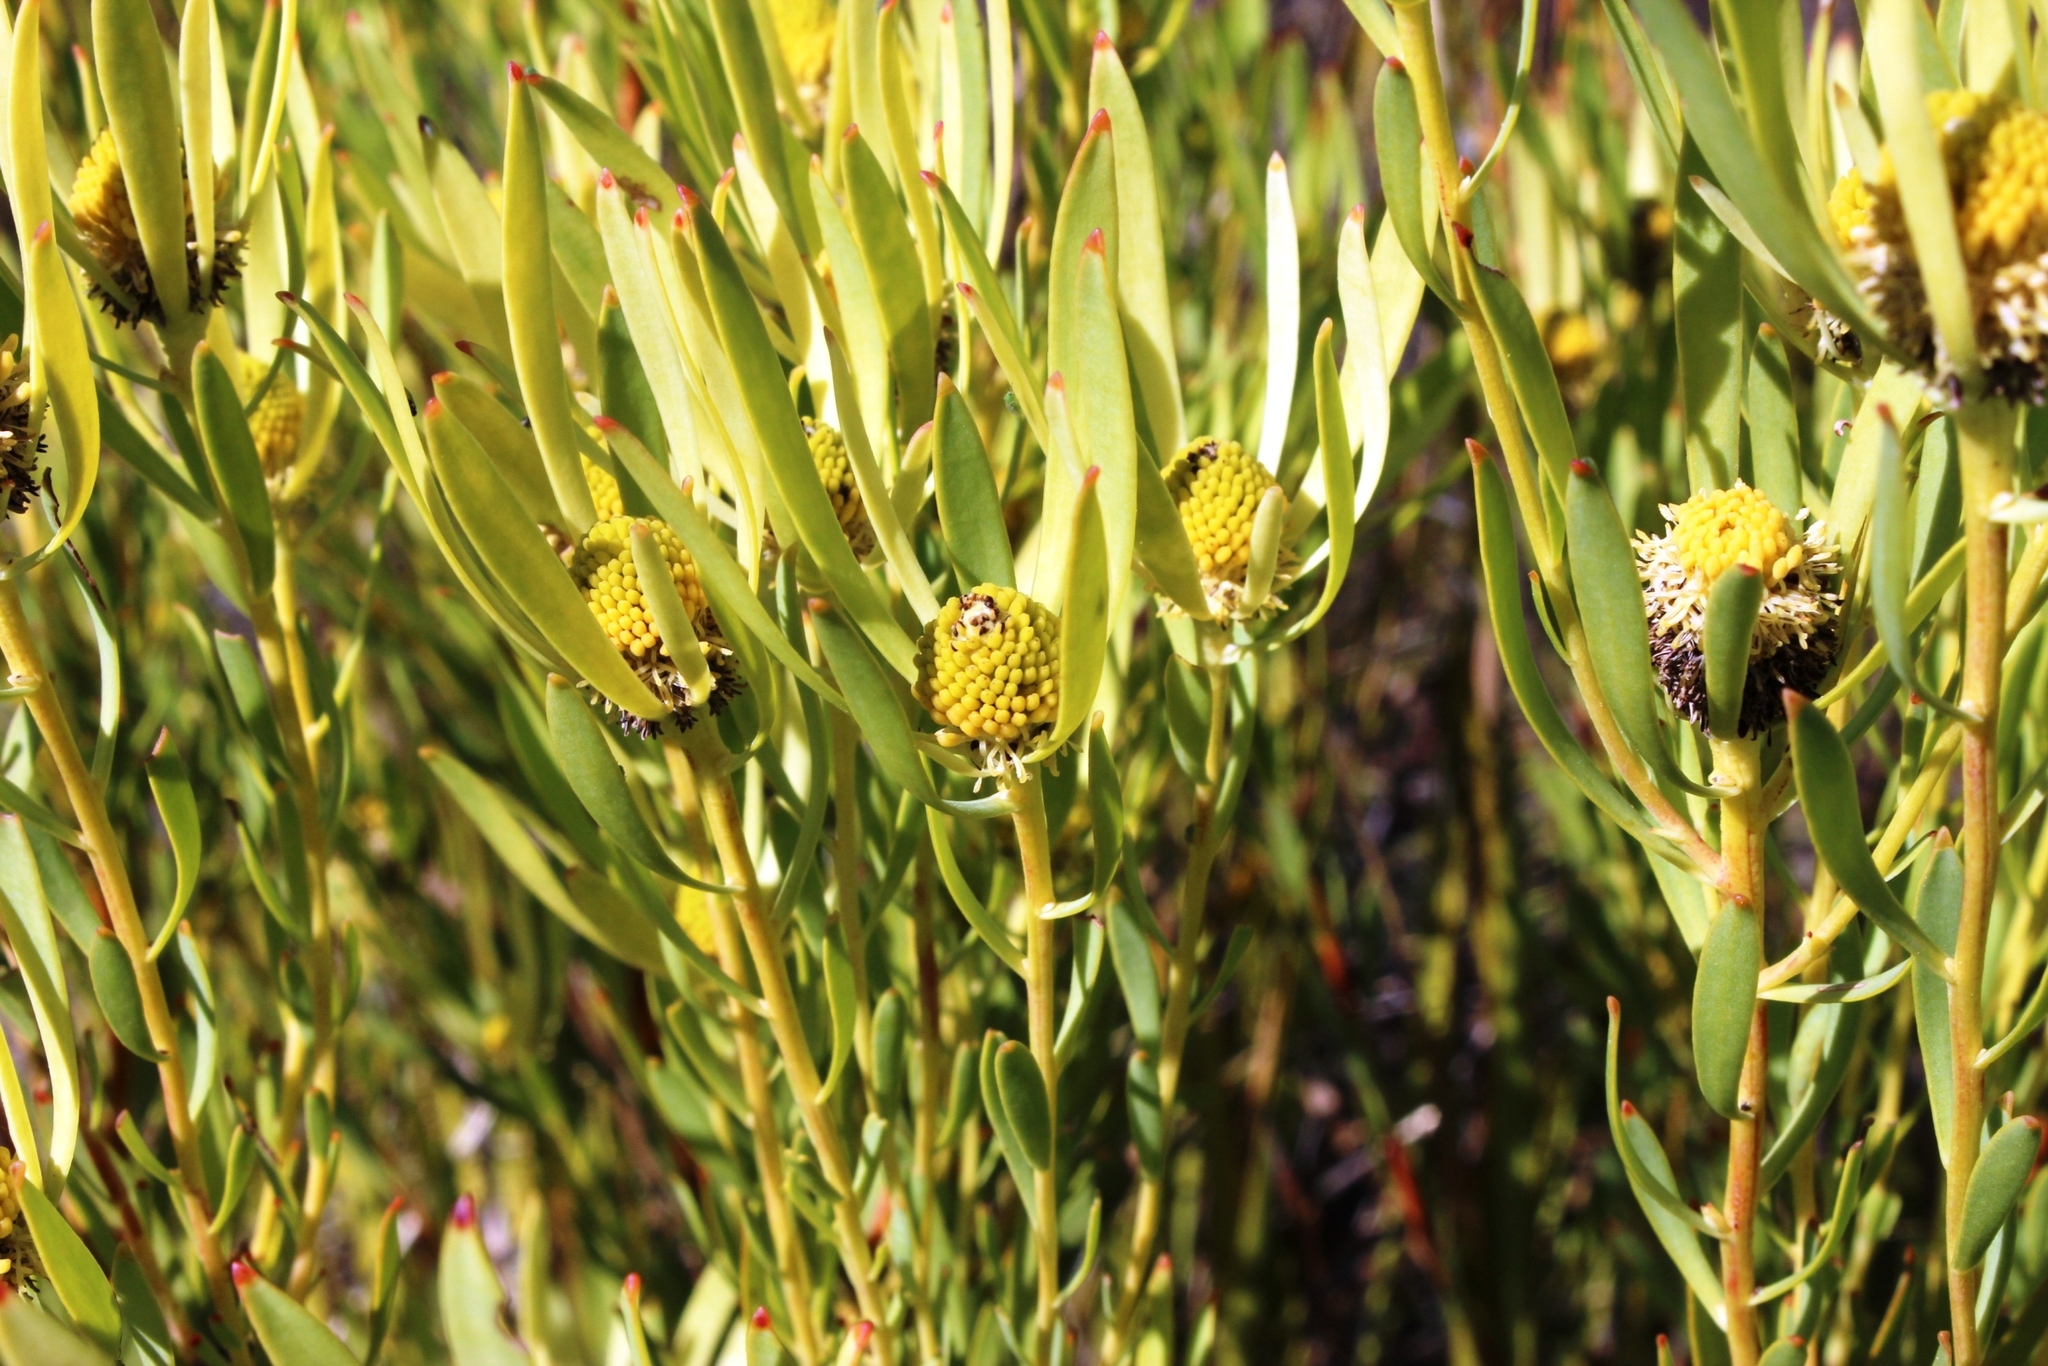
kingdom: Plantae
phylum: Tracheophyta
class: Magnoliopsida
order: Proteales
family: Proteaceae
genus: Leucadendron
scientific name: Leucadendron salignum
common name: Common sunshine conebush
